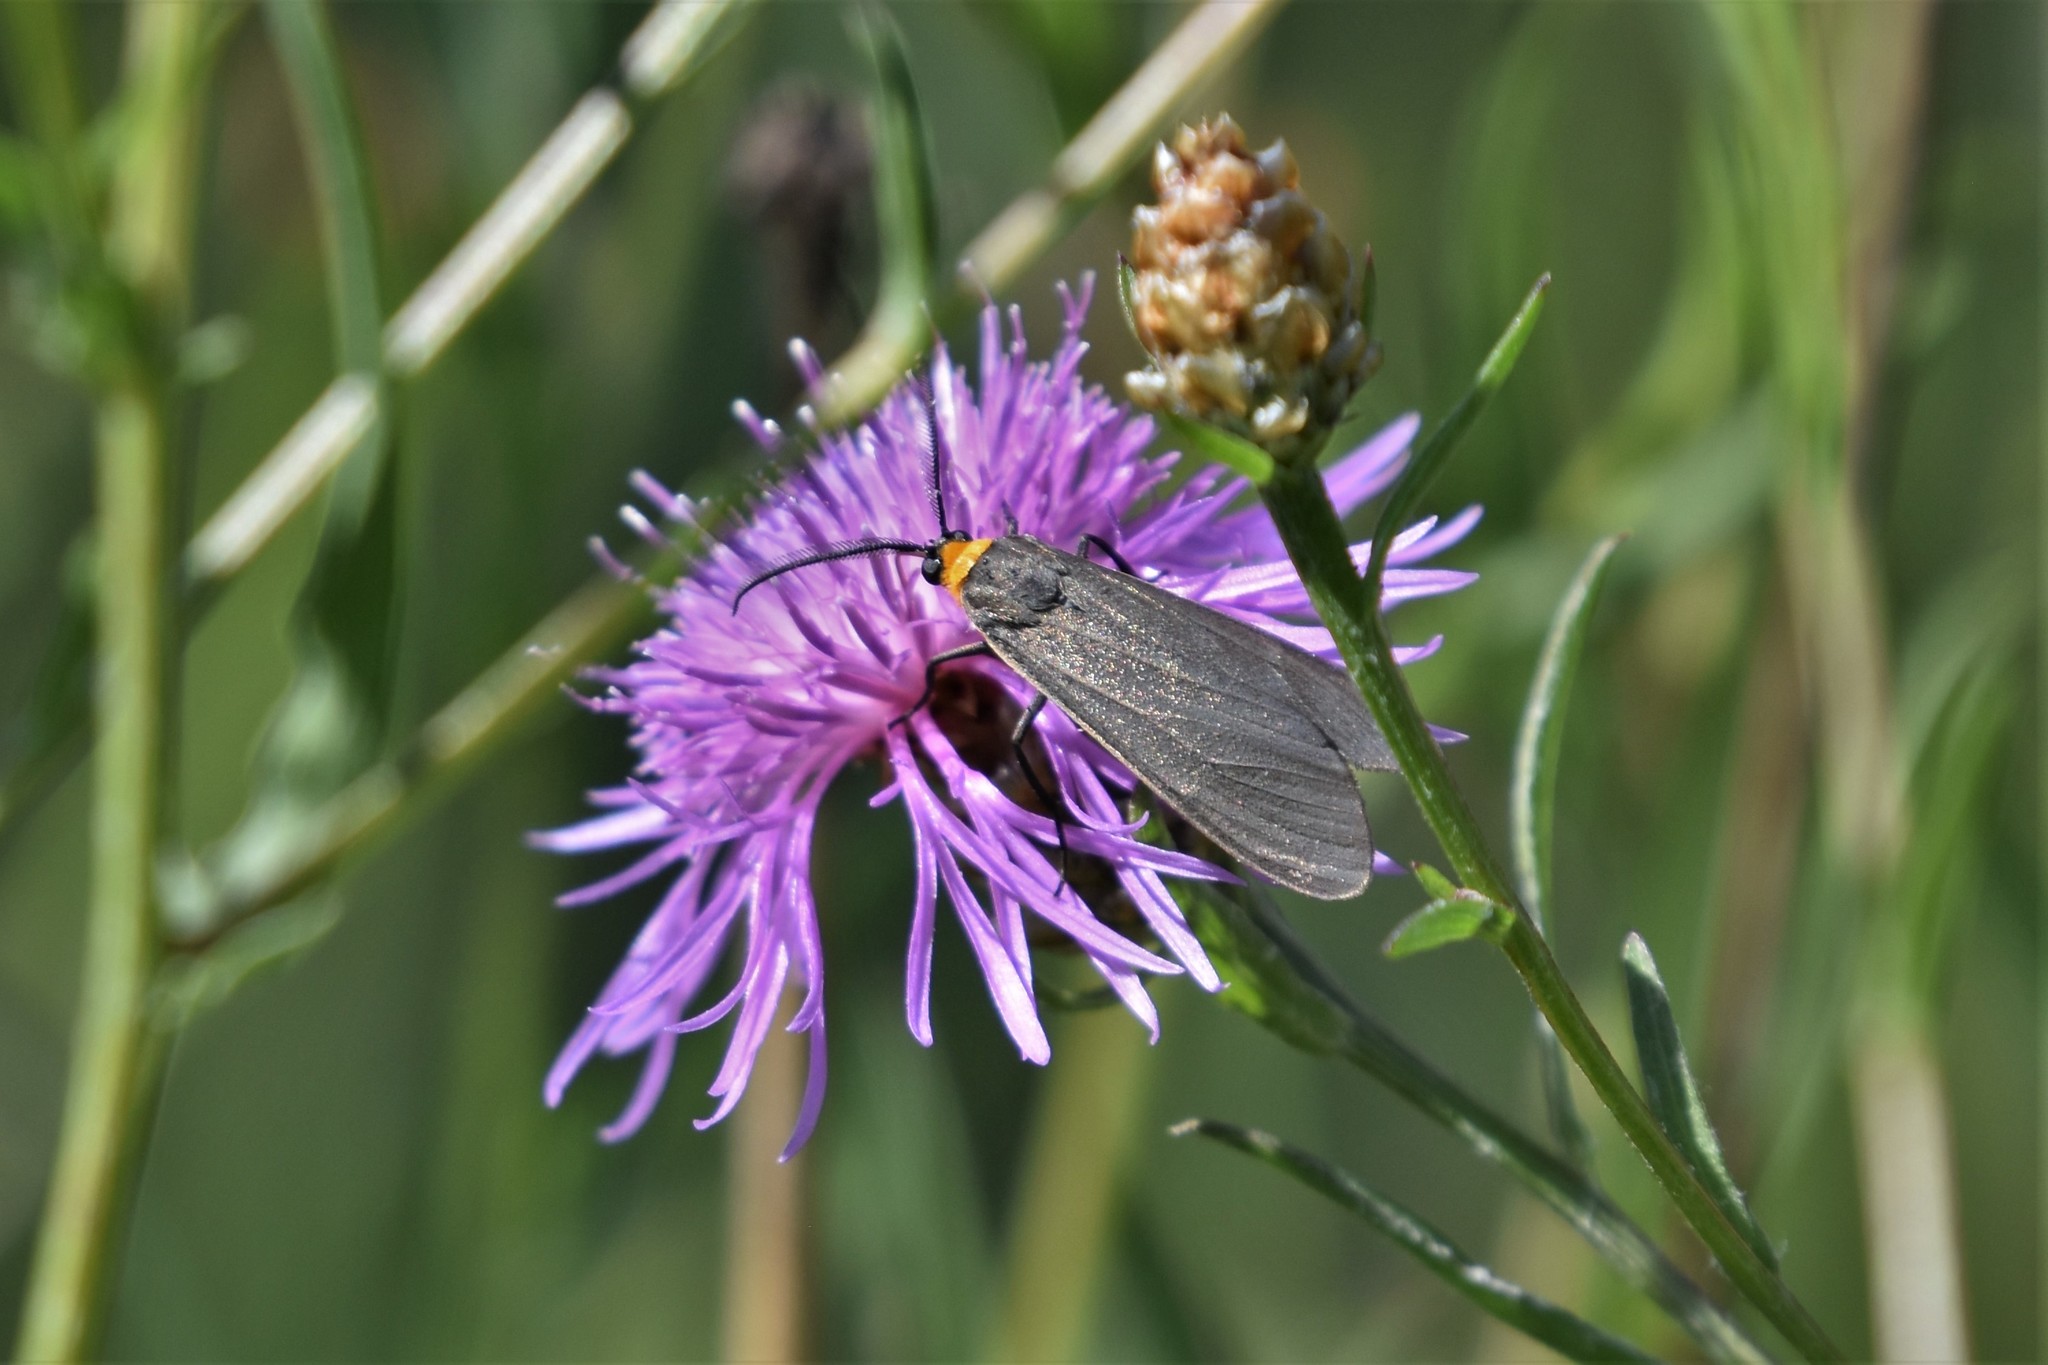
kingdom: Animalia
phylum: Arthropoda
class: Insecta
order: Lepidoptera
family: Erebidae
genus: Cisseps
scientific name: Cisseps fulvicollis
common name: Yellow-collared scape moth
